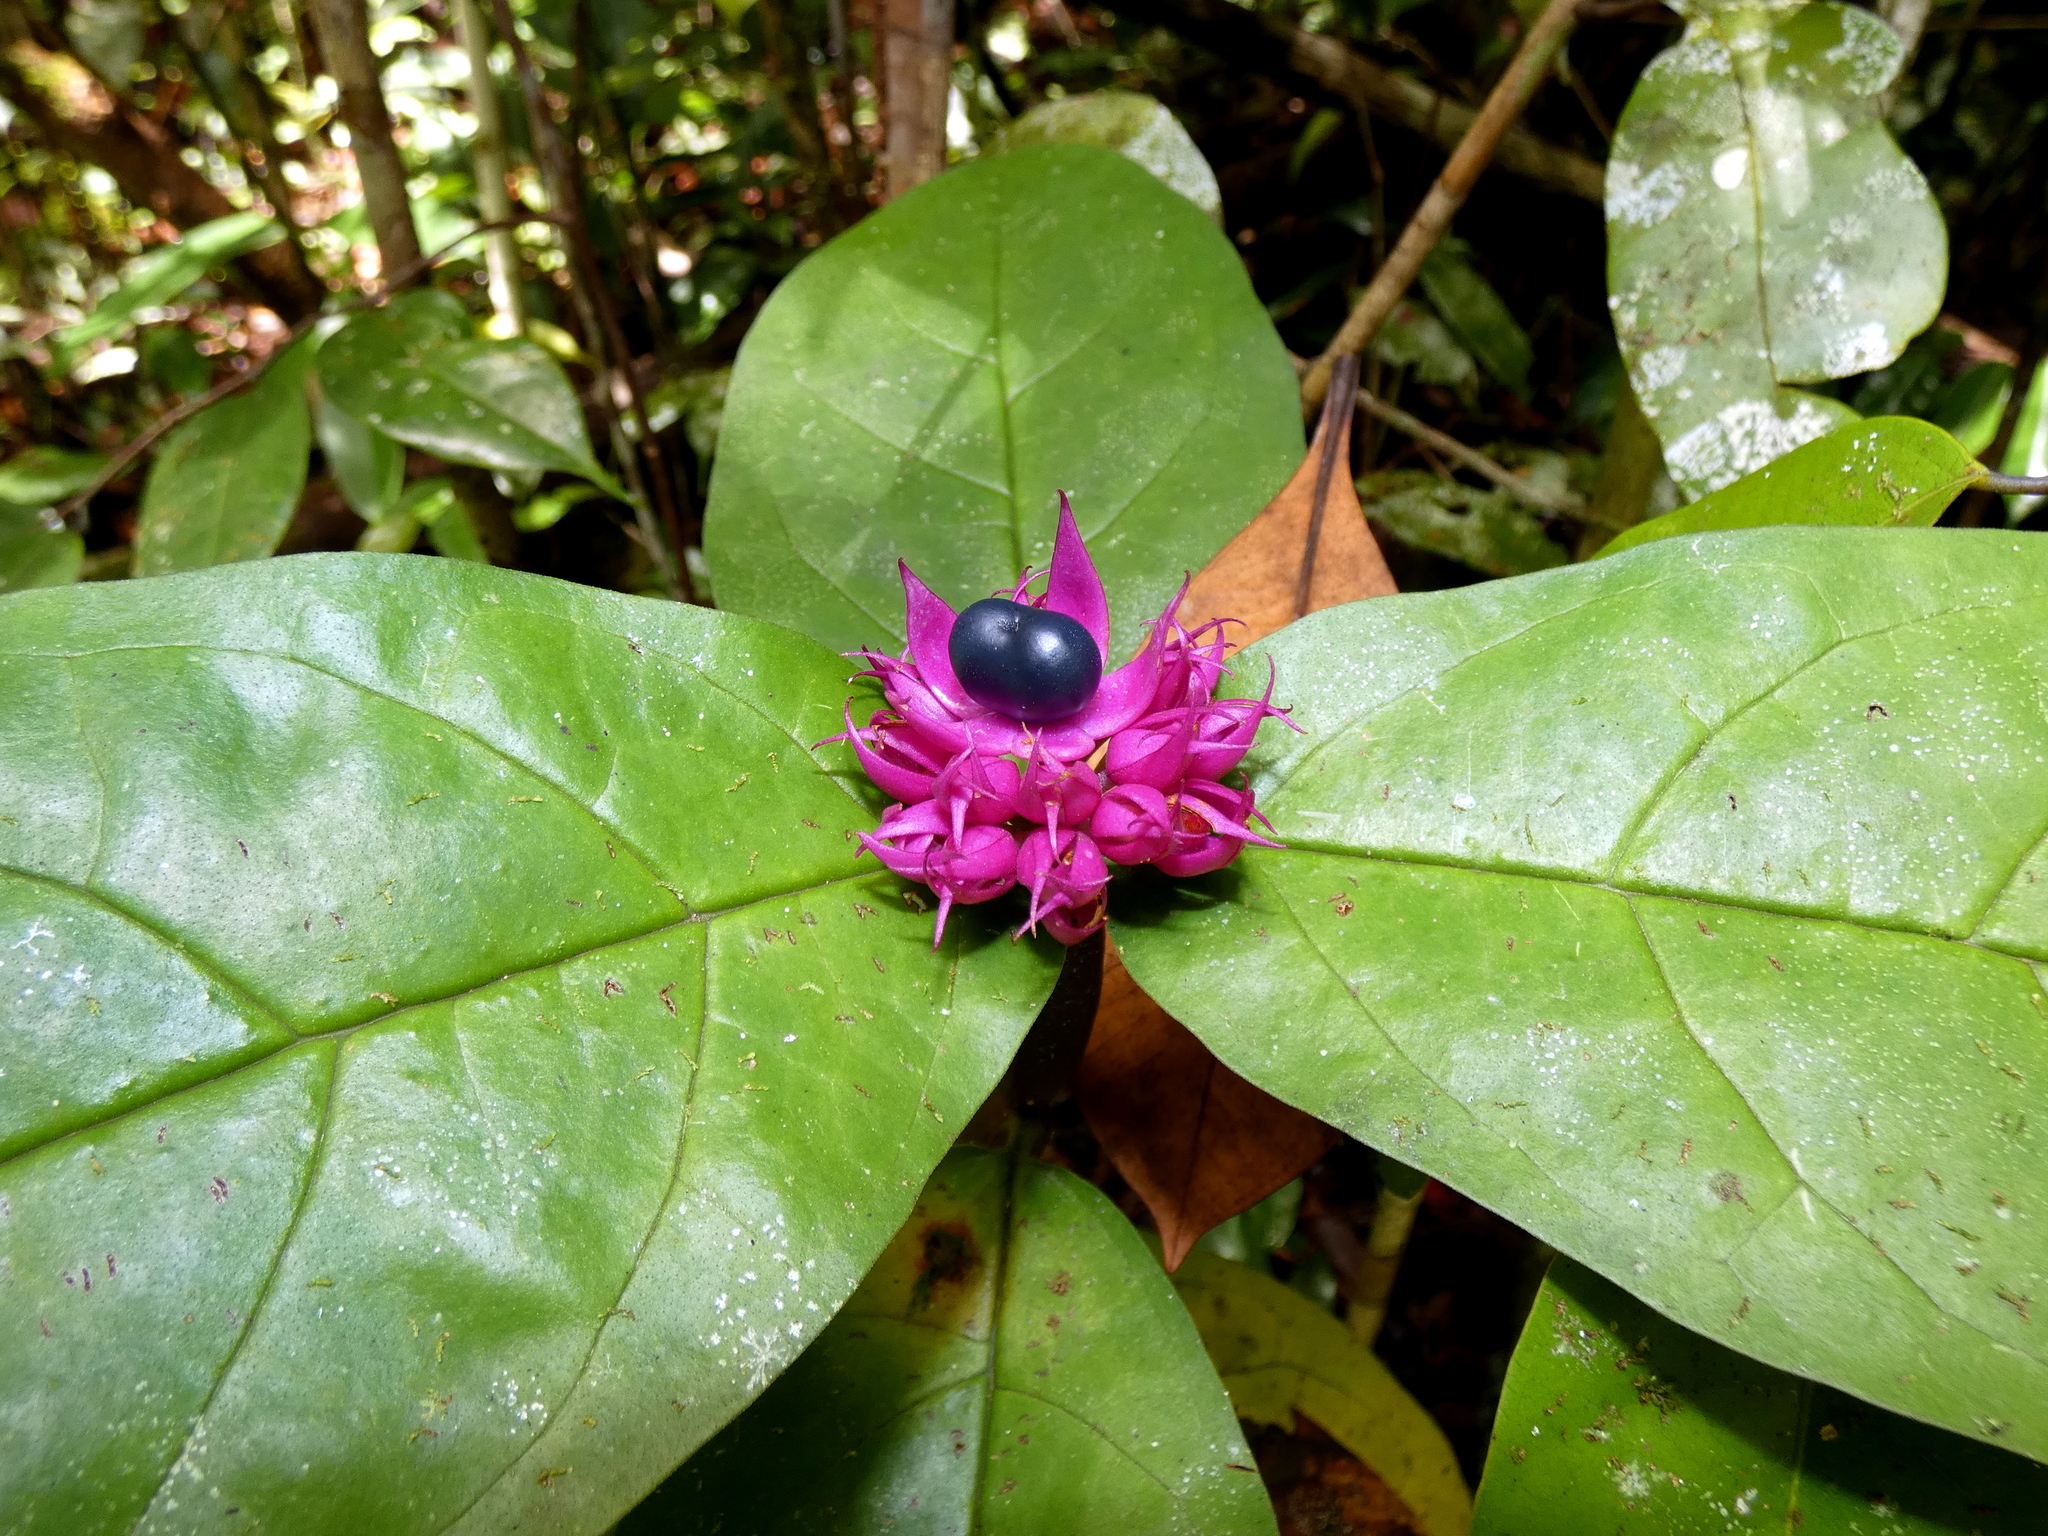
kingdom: Plantae
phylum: Tracheophyta
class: Magnoliopsida
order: Lamiales
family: Lamiaceae
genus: Clerodendrum
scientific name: Clerodendrum fistulosum
